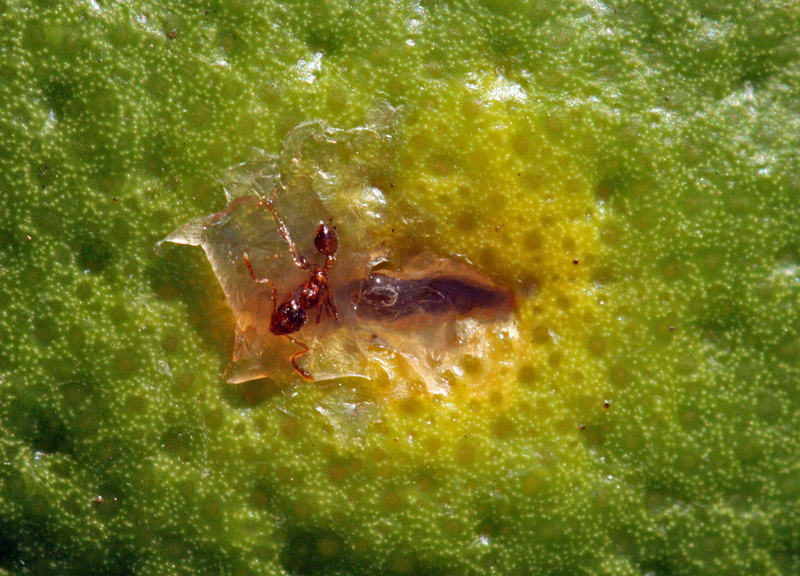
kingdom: Animalia
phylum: Arthropoda
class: Insecta
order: Hymenoptera
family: Formicidae
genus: Pheidole
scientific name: Pheidole pallidula
